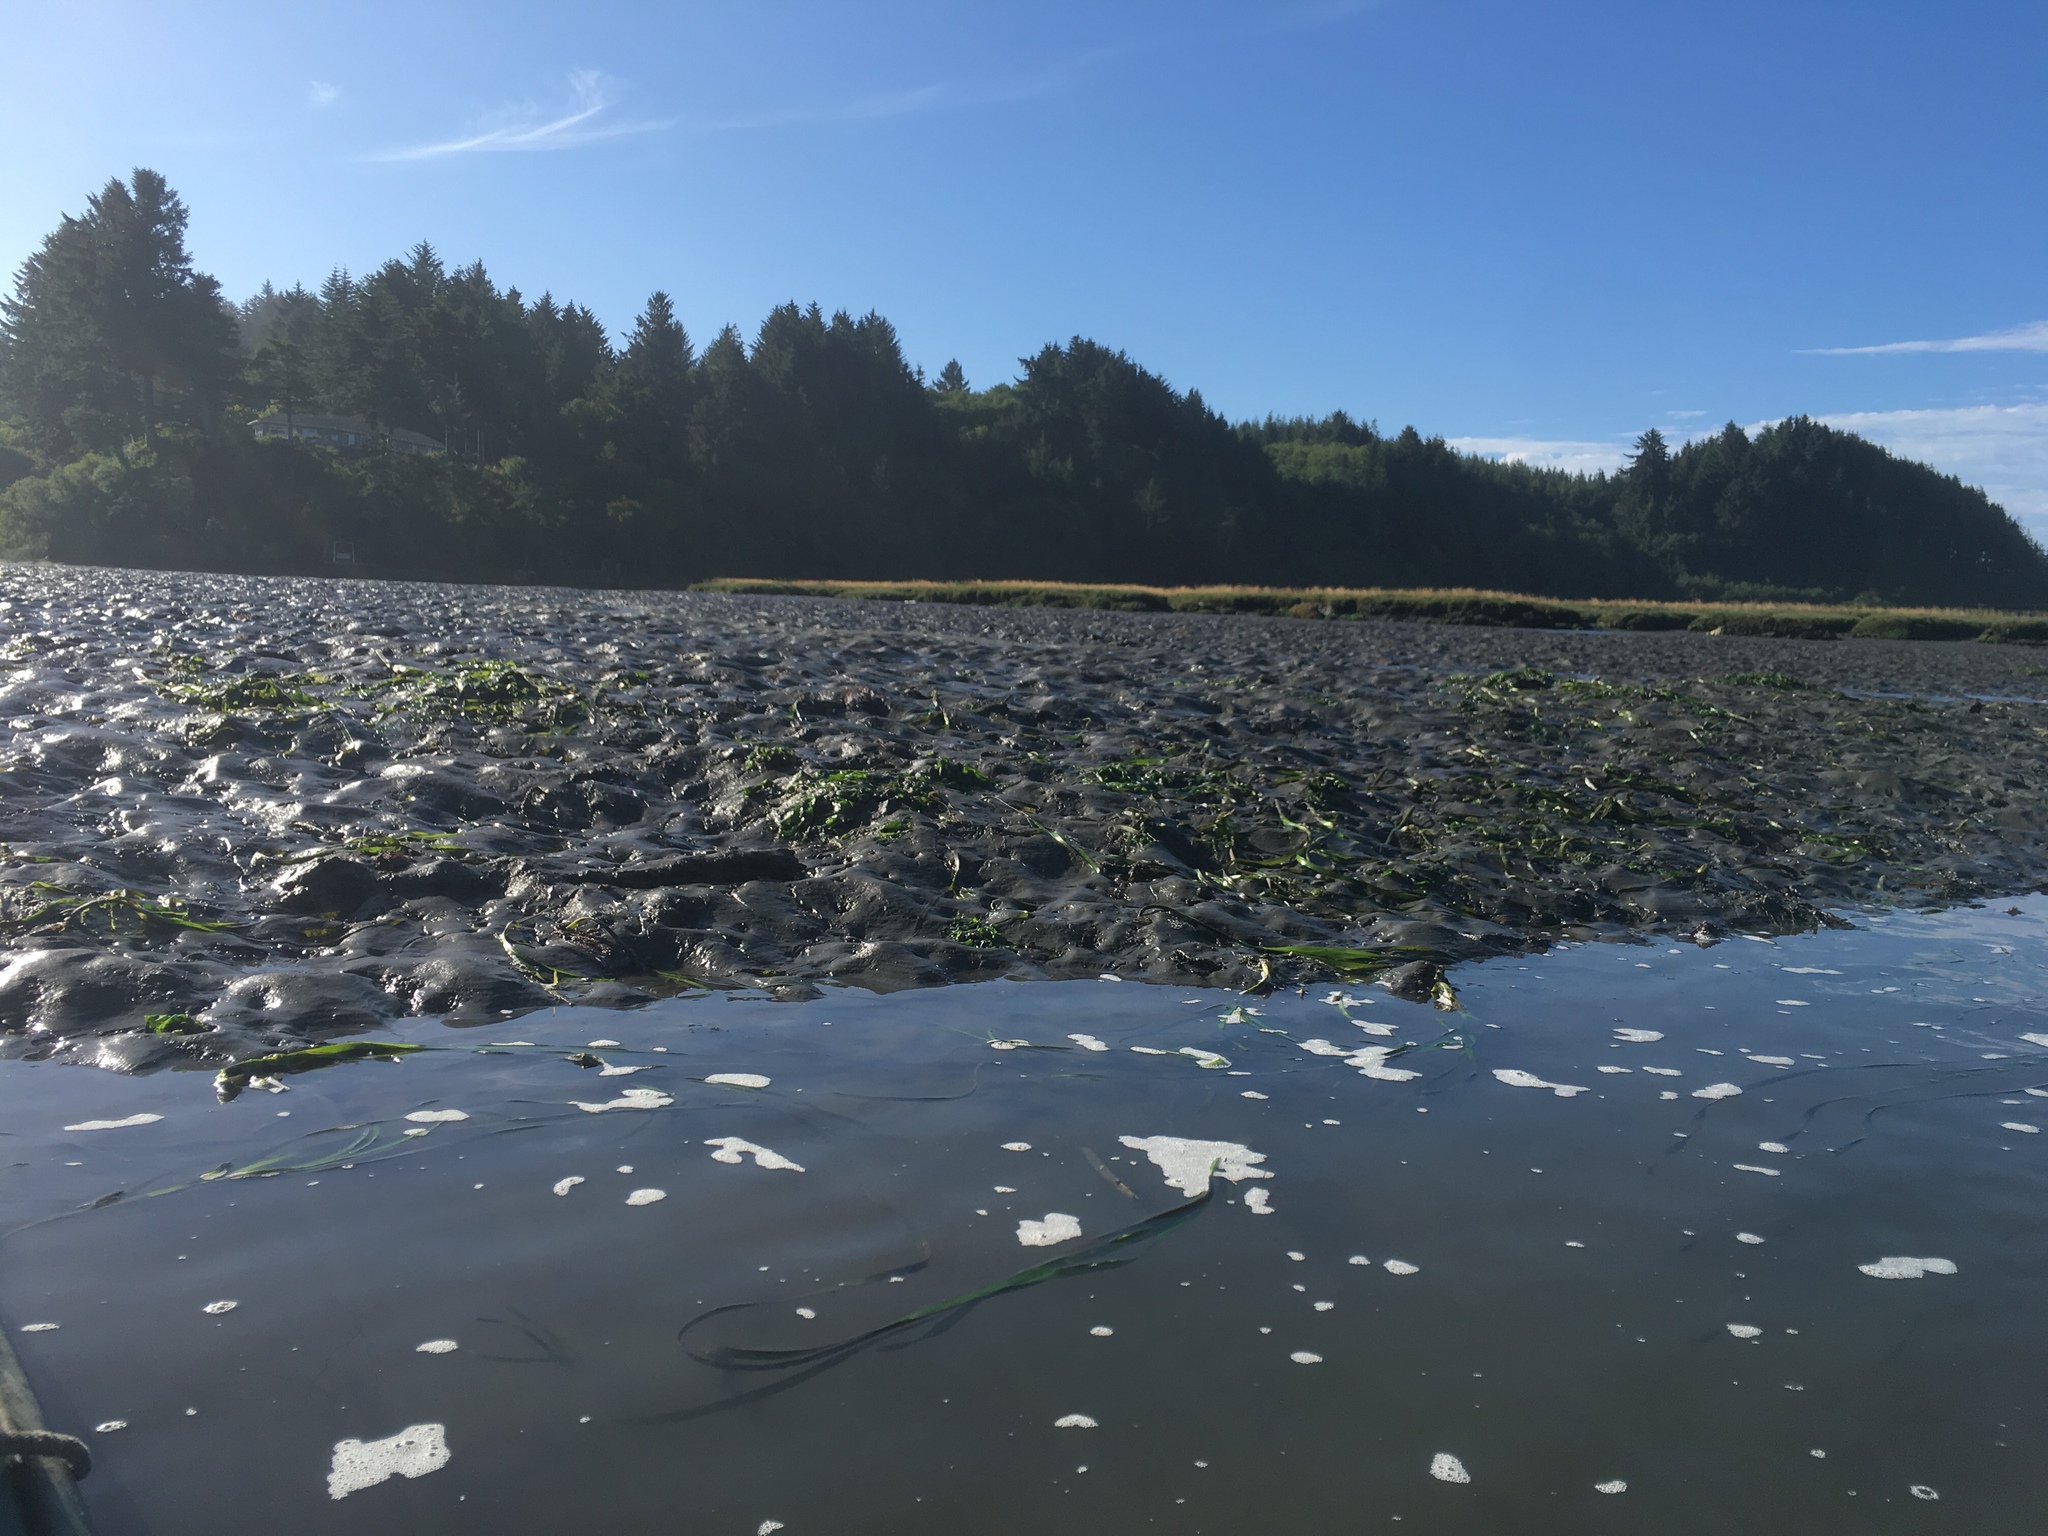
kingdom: Plantae
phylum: Tracheophyta
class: Liliopsida
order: Alismatales
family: Zosteraceae
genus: Zostera
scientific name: Zostera marina
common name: Eelgrass
